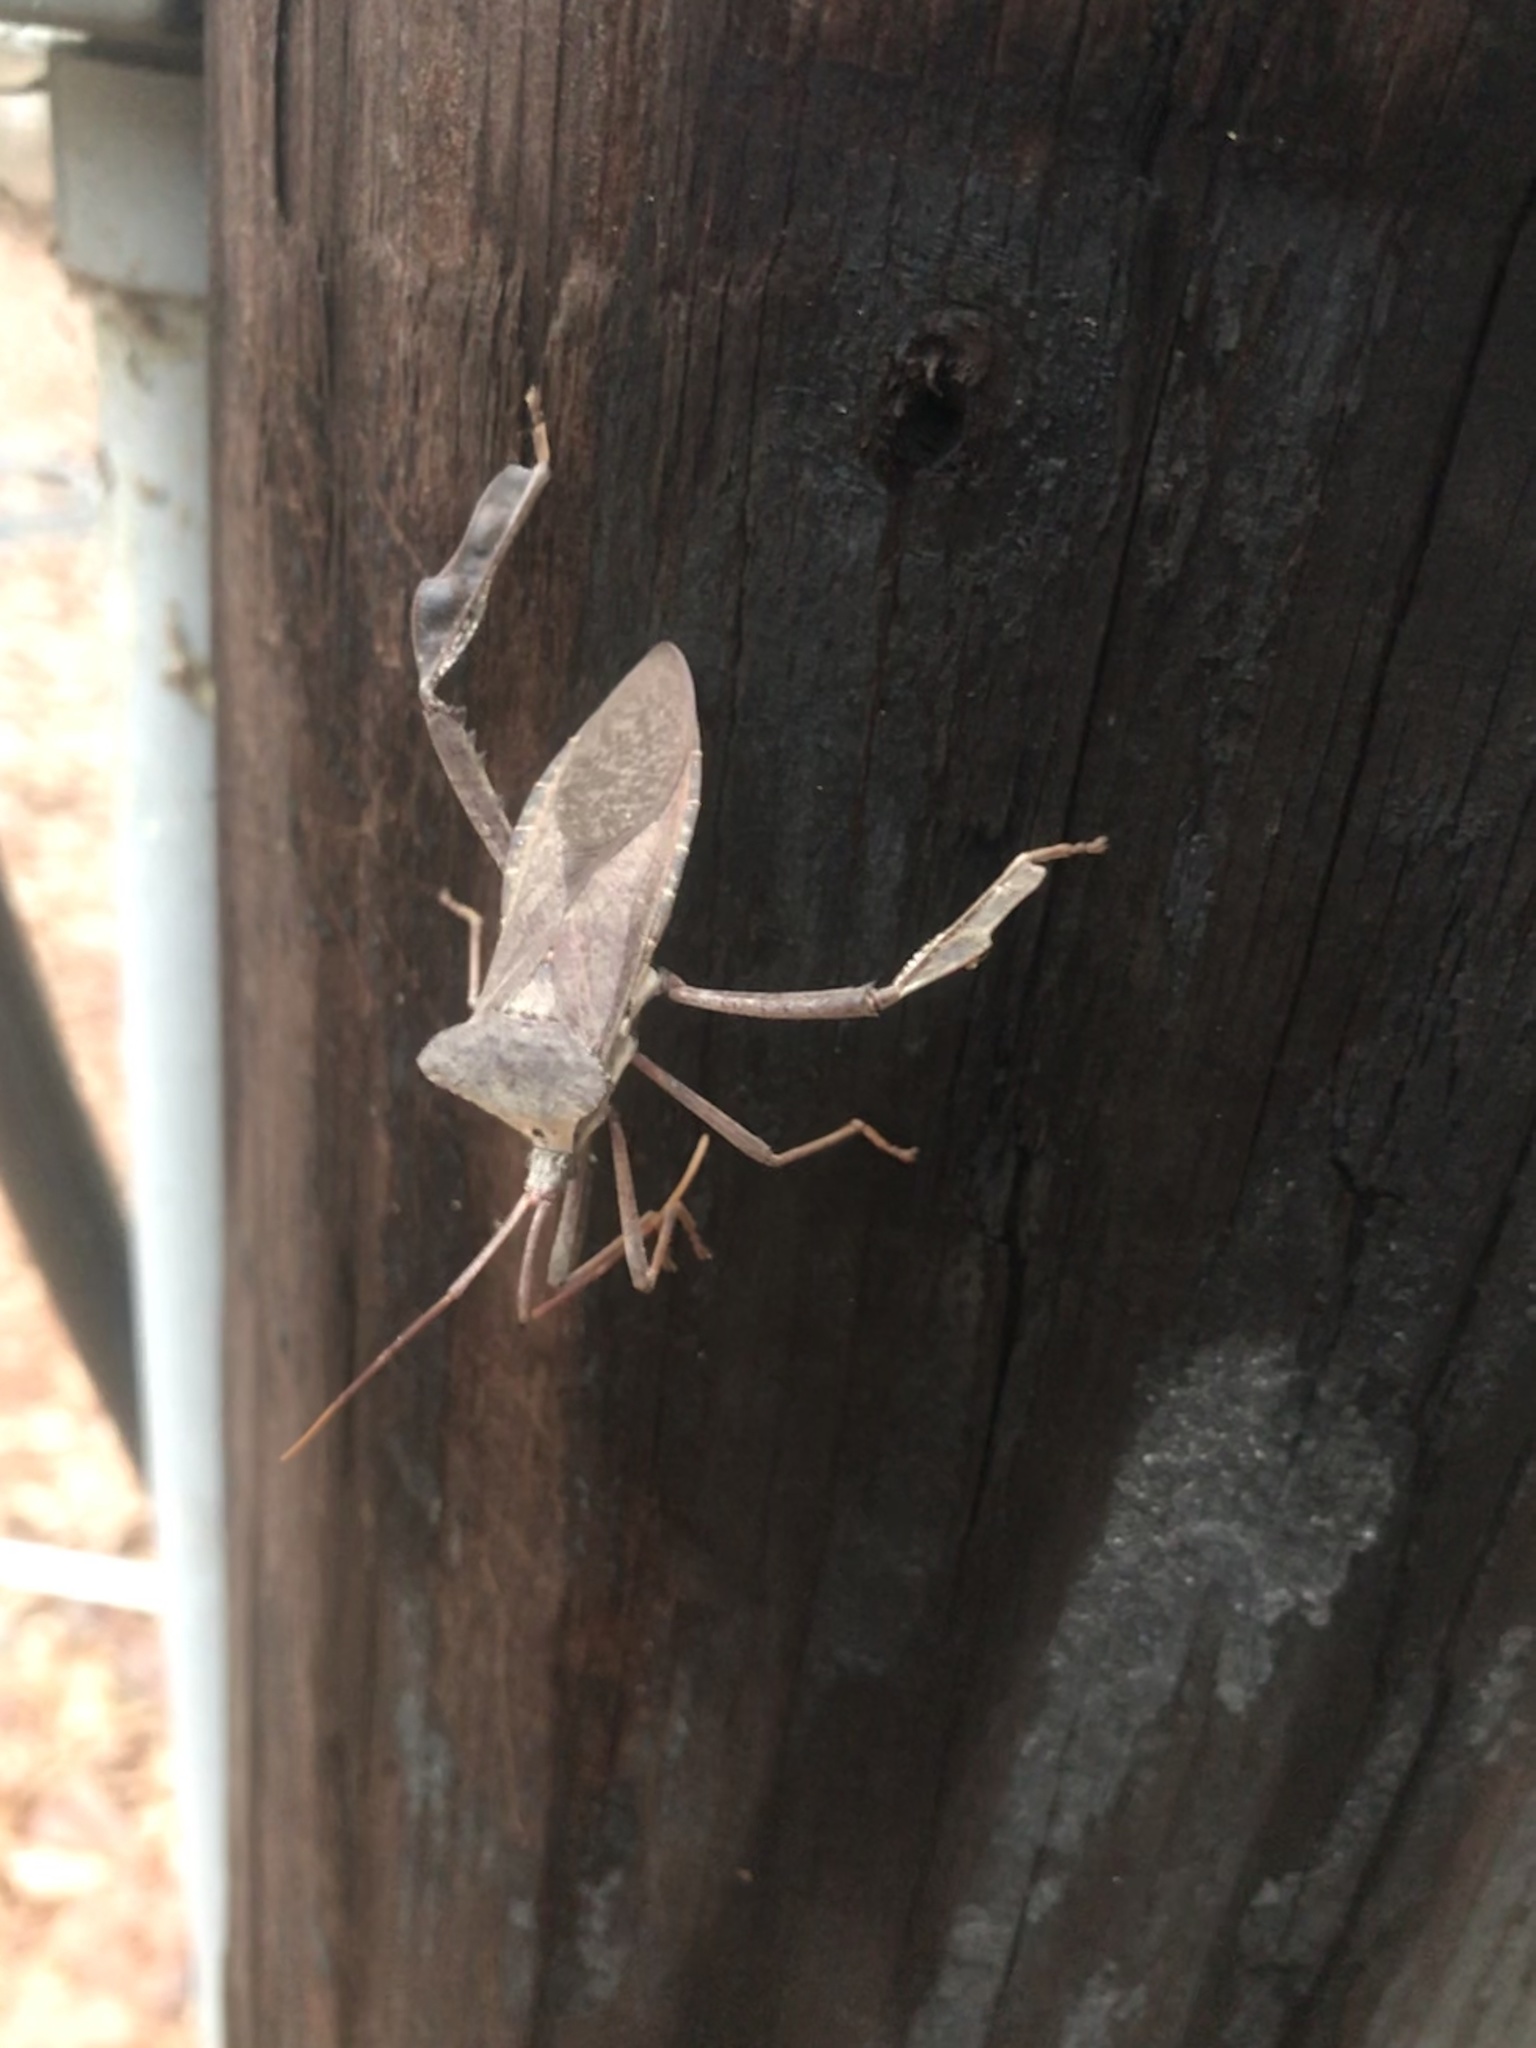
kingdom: Animalia
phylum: Arthropoda
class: Insecta
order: Hemiptera
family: Coreidae
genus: Acanthocephala
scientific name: Acanthocephala declivis
